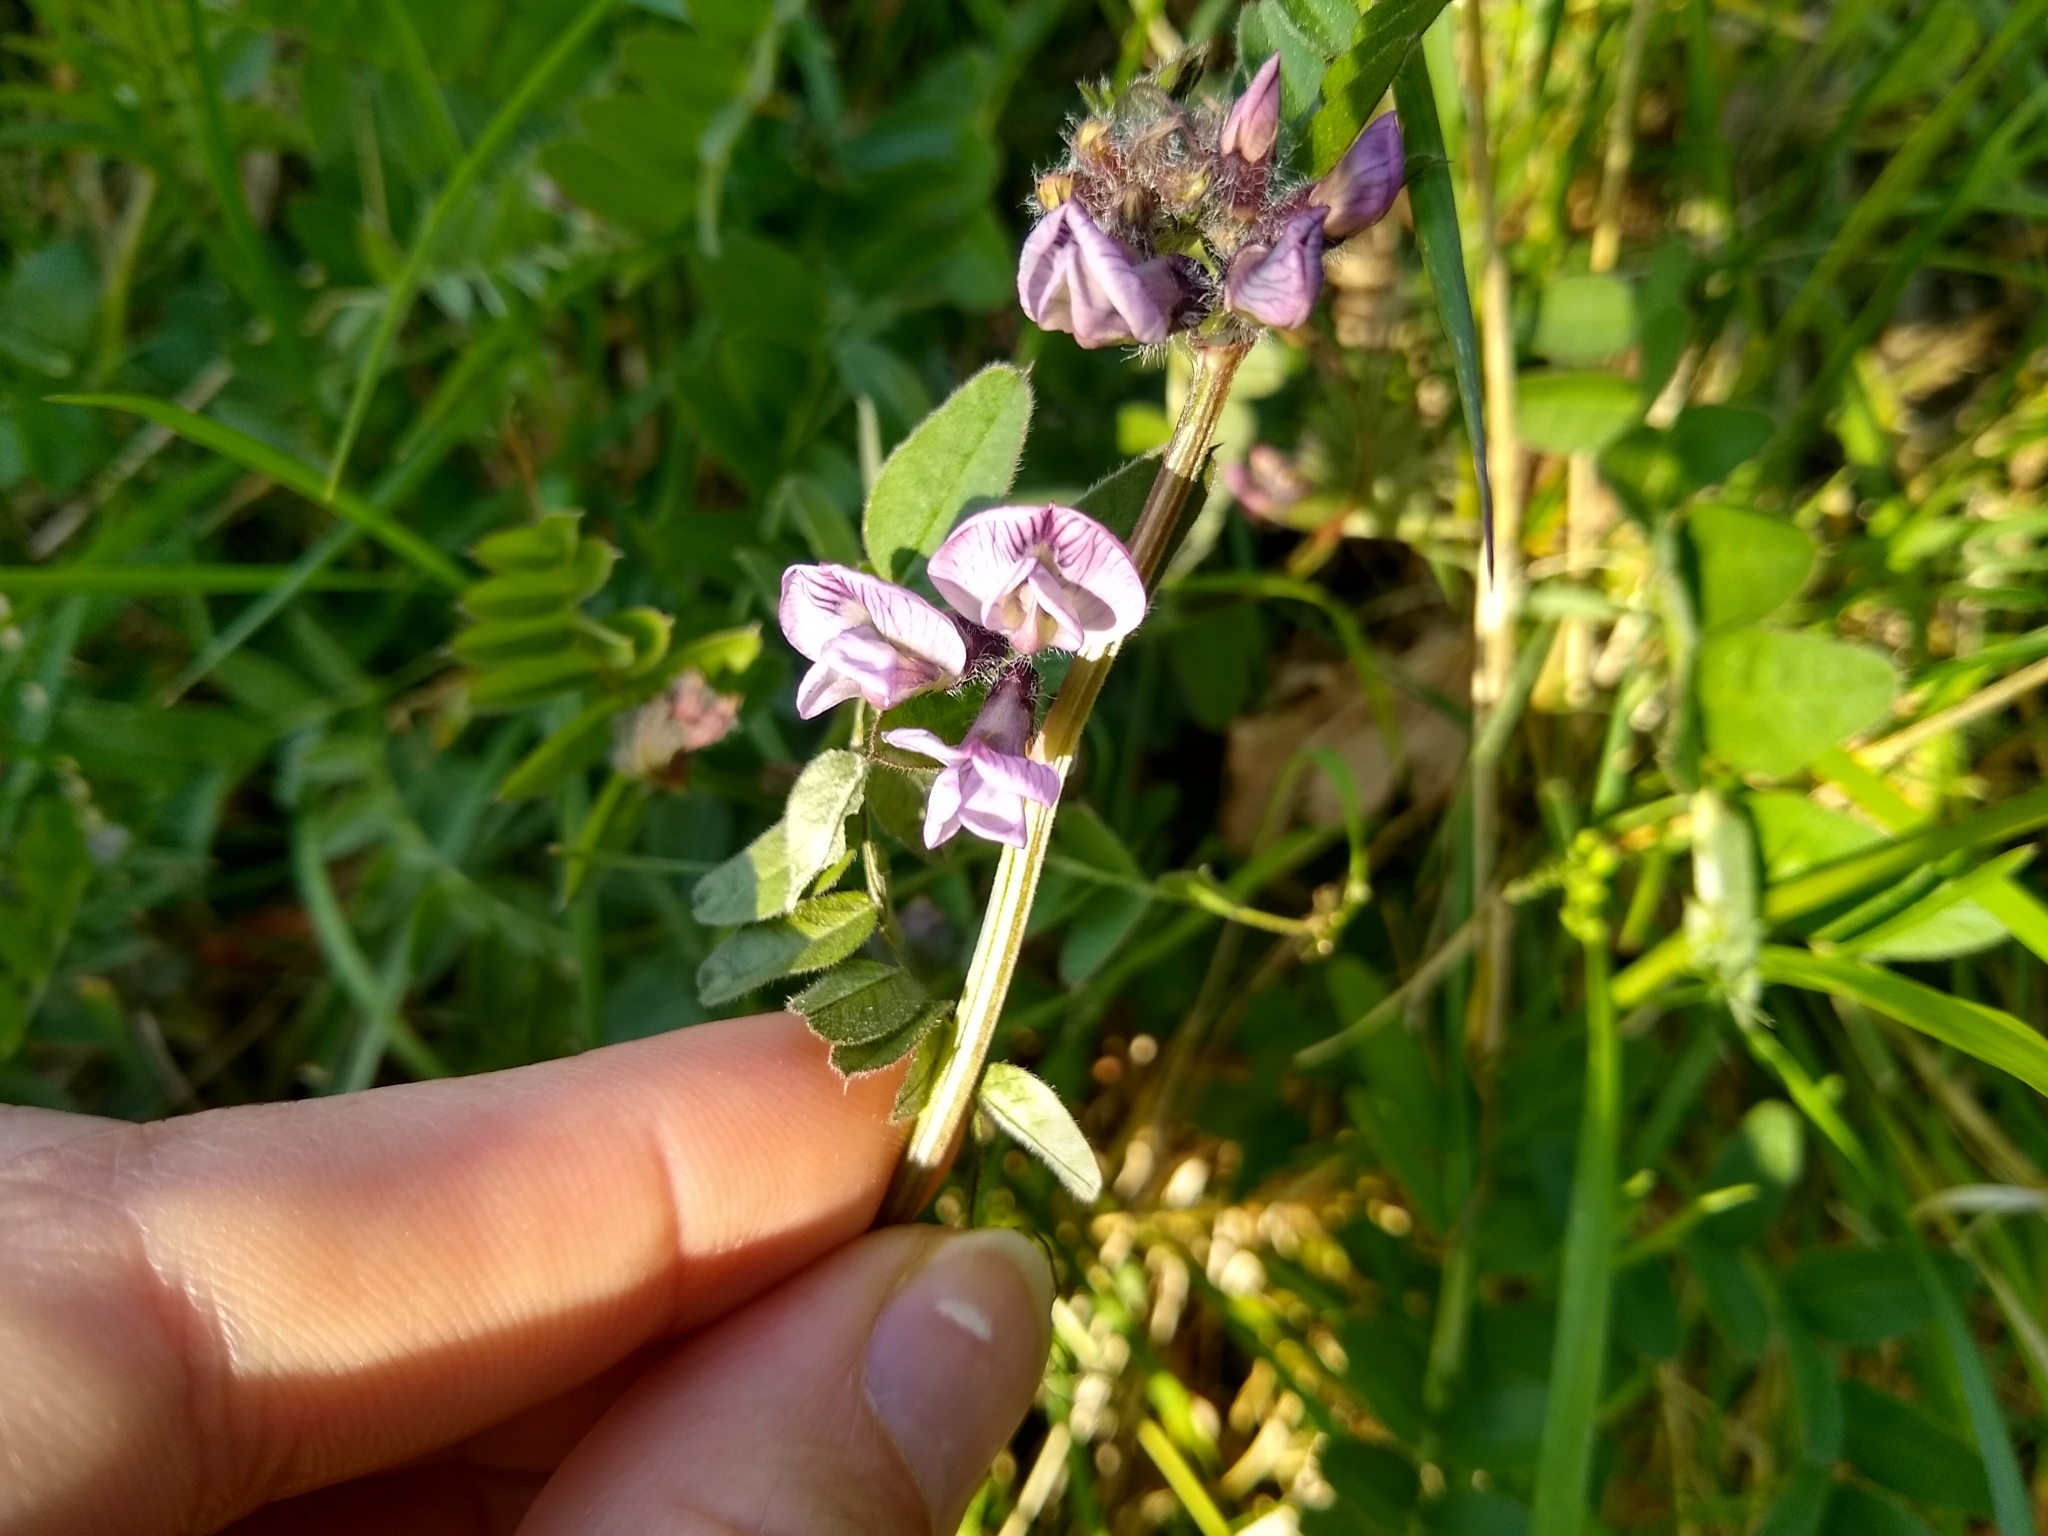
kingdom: Plantae
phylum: Tracheophyta
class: Magnoliopsida
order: Fabales
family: Fabaceae
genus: Vicia
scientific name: Vicia sepium
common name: Bush vetch
